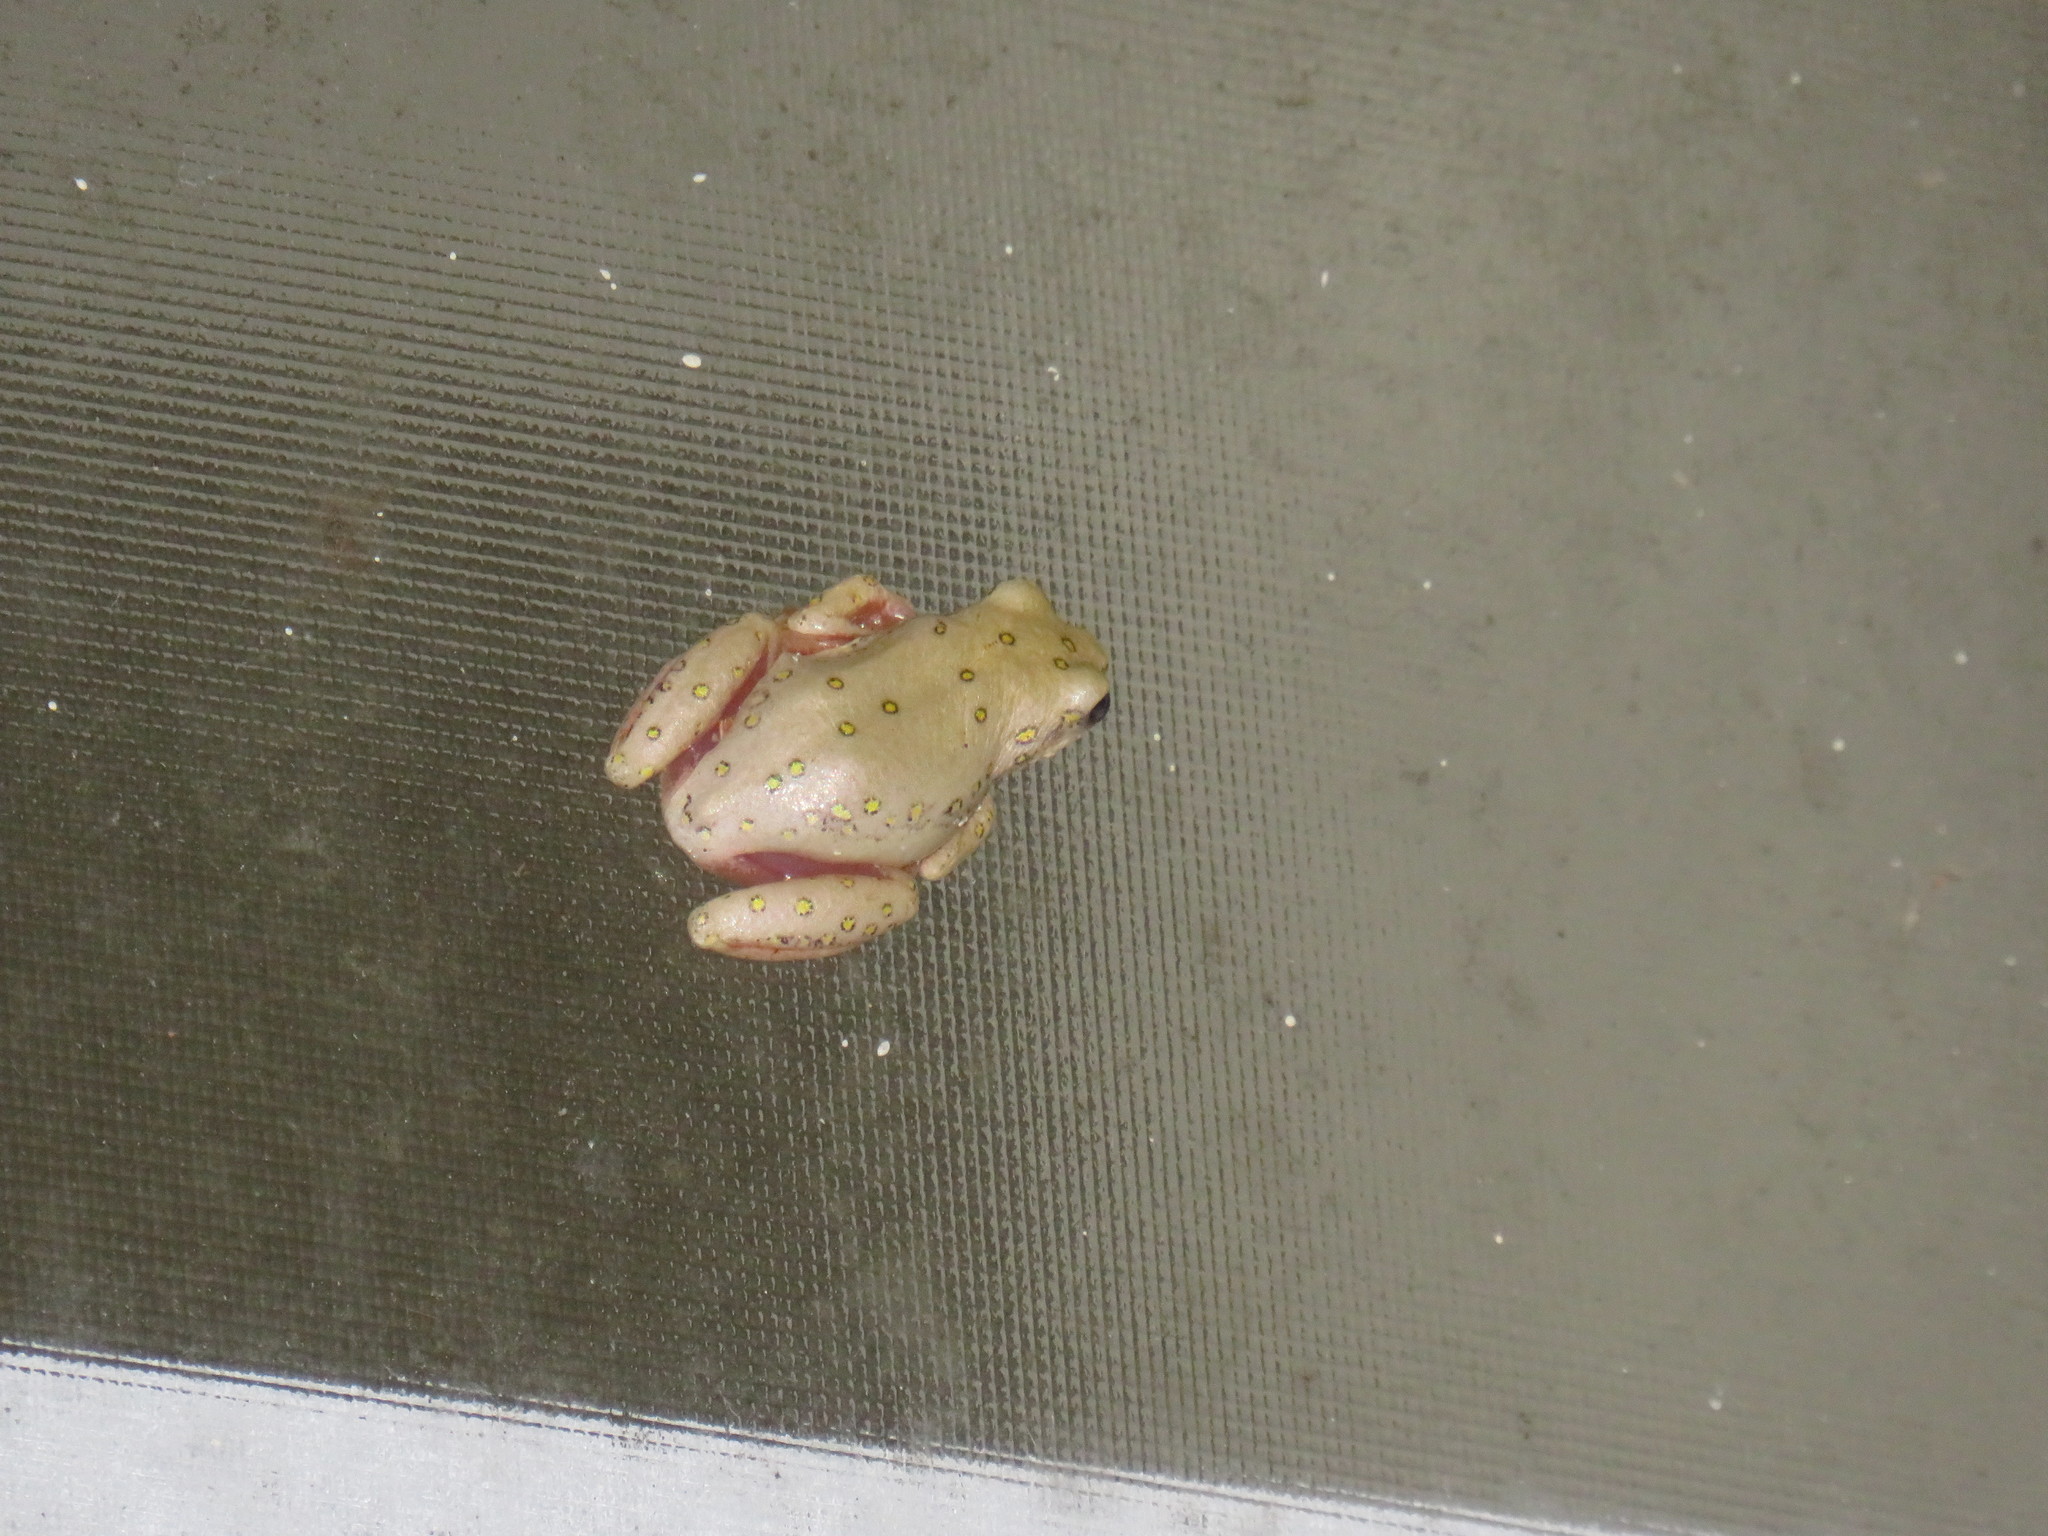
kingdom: Animalia
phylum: Chordata
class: Amphibia
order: Anura
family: Hyperoliidae
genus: Hyperolius
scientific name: Hyperolius marmoratus
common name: Painted reed frog
